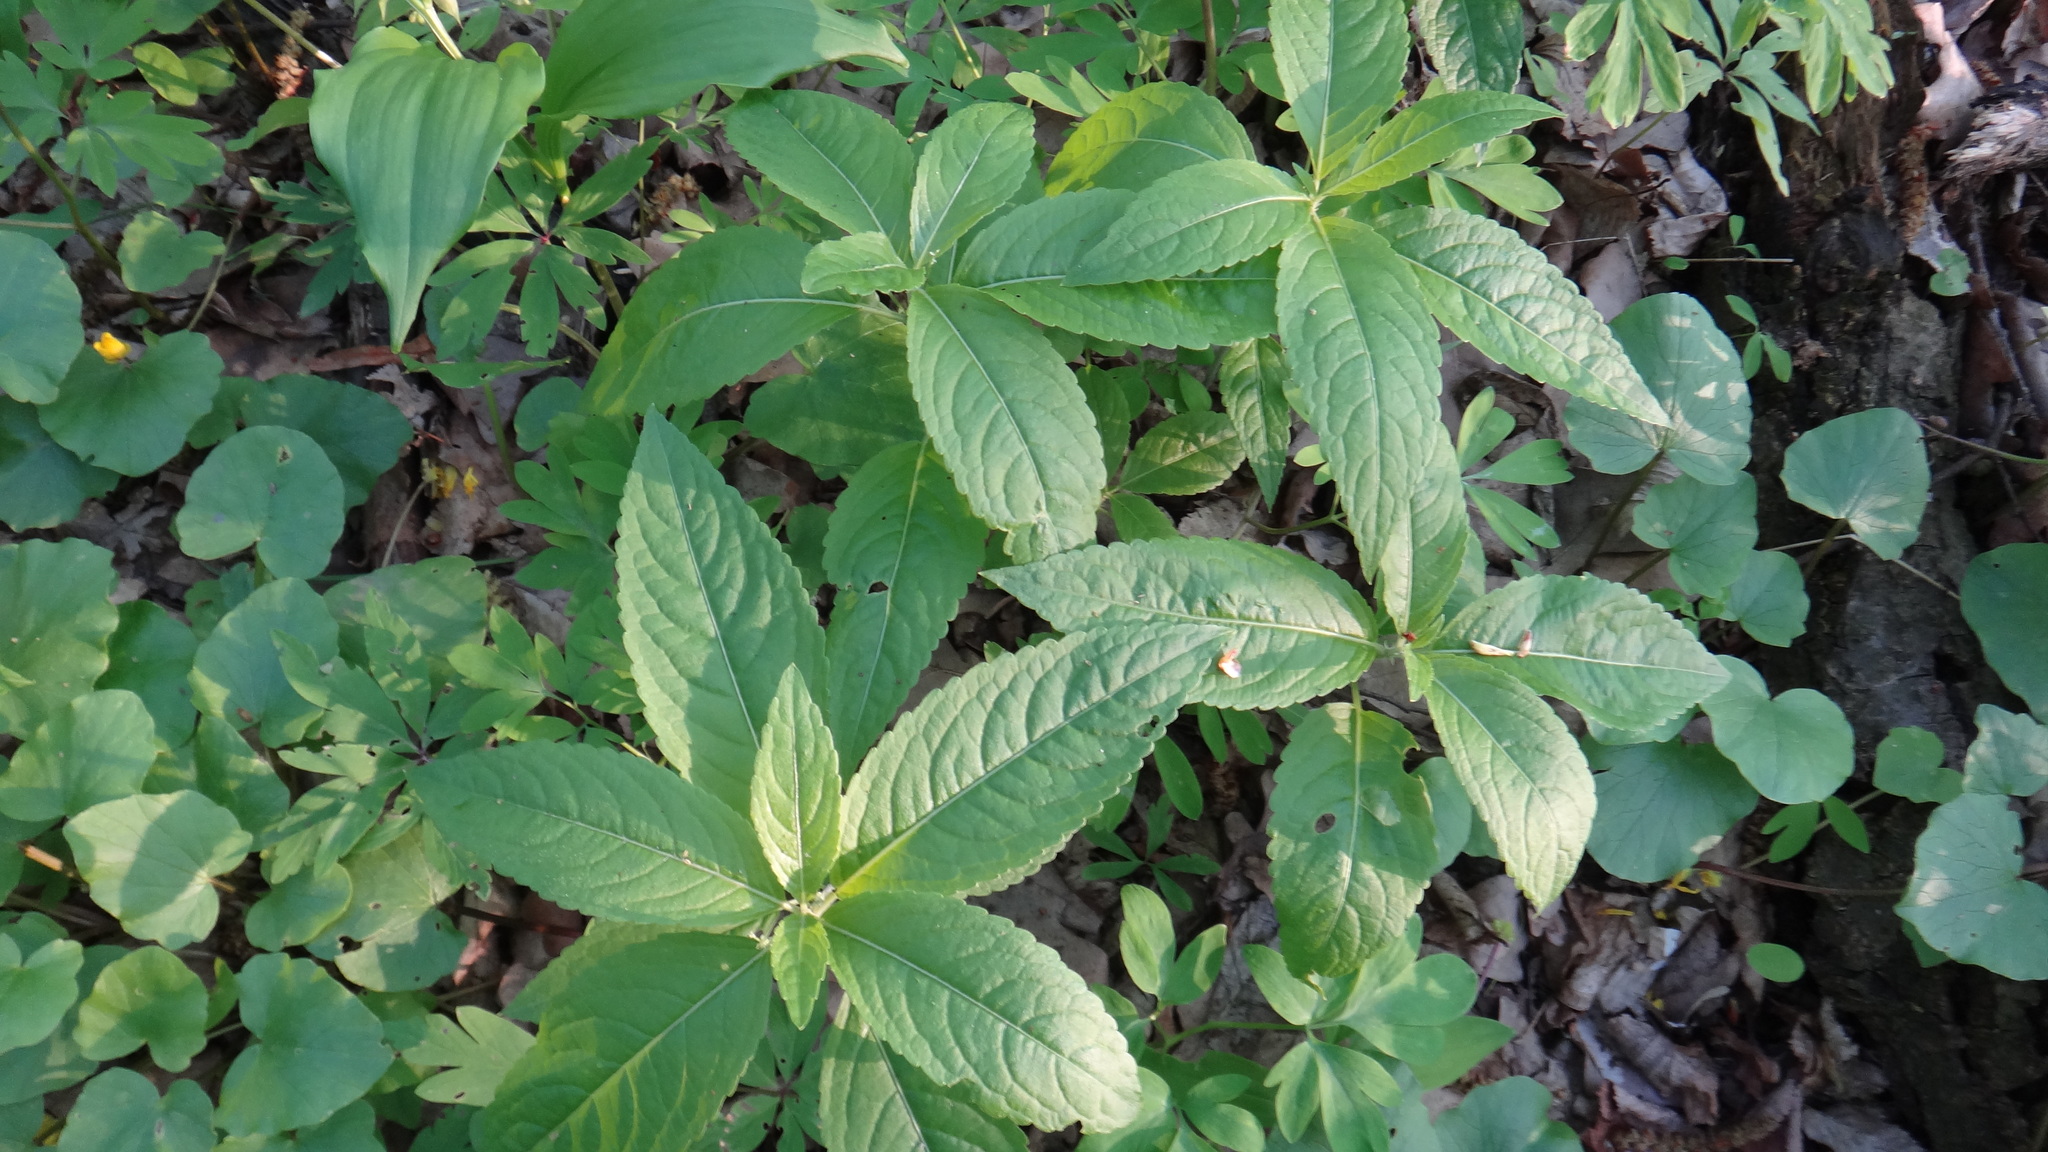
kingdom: Plantae
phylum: Tracheophyta
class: Magnoliopsida
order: Malpighiales
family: Euphorbiaceae
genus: Mercurialis
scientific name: Mercurialis perennis
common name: Dog mercury
